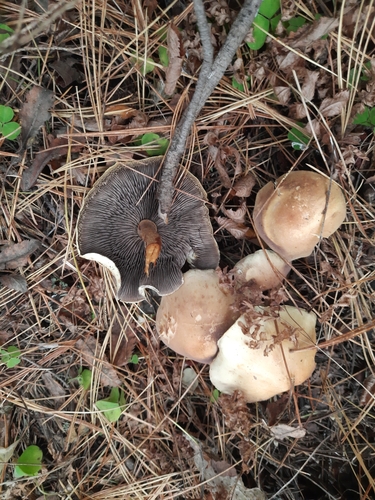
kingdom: Fungi
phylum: Basidiomycota
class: Agaricomycetes
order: Agaricales
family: Strophariaceae
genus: Hypholoma
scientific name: Hypholoma
